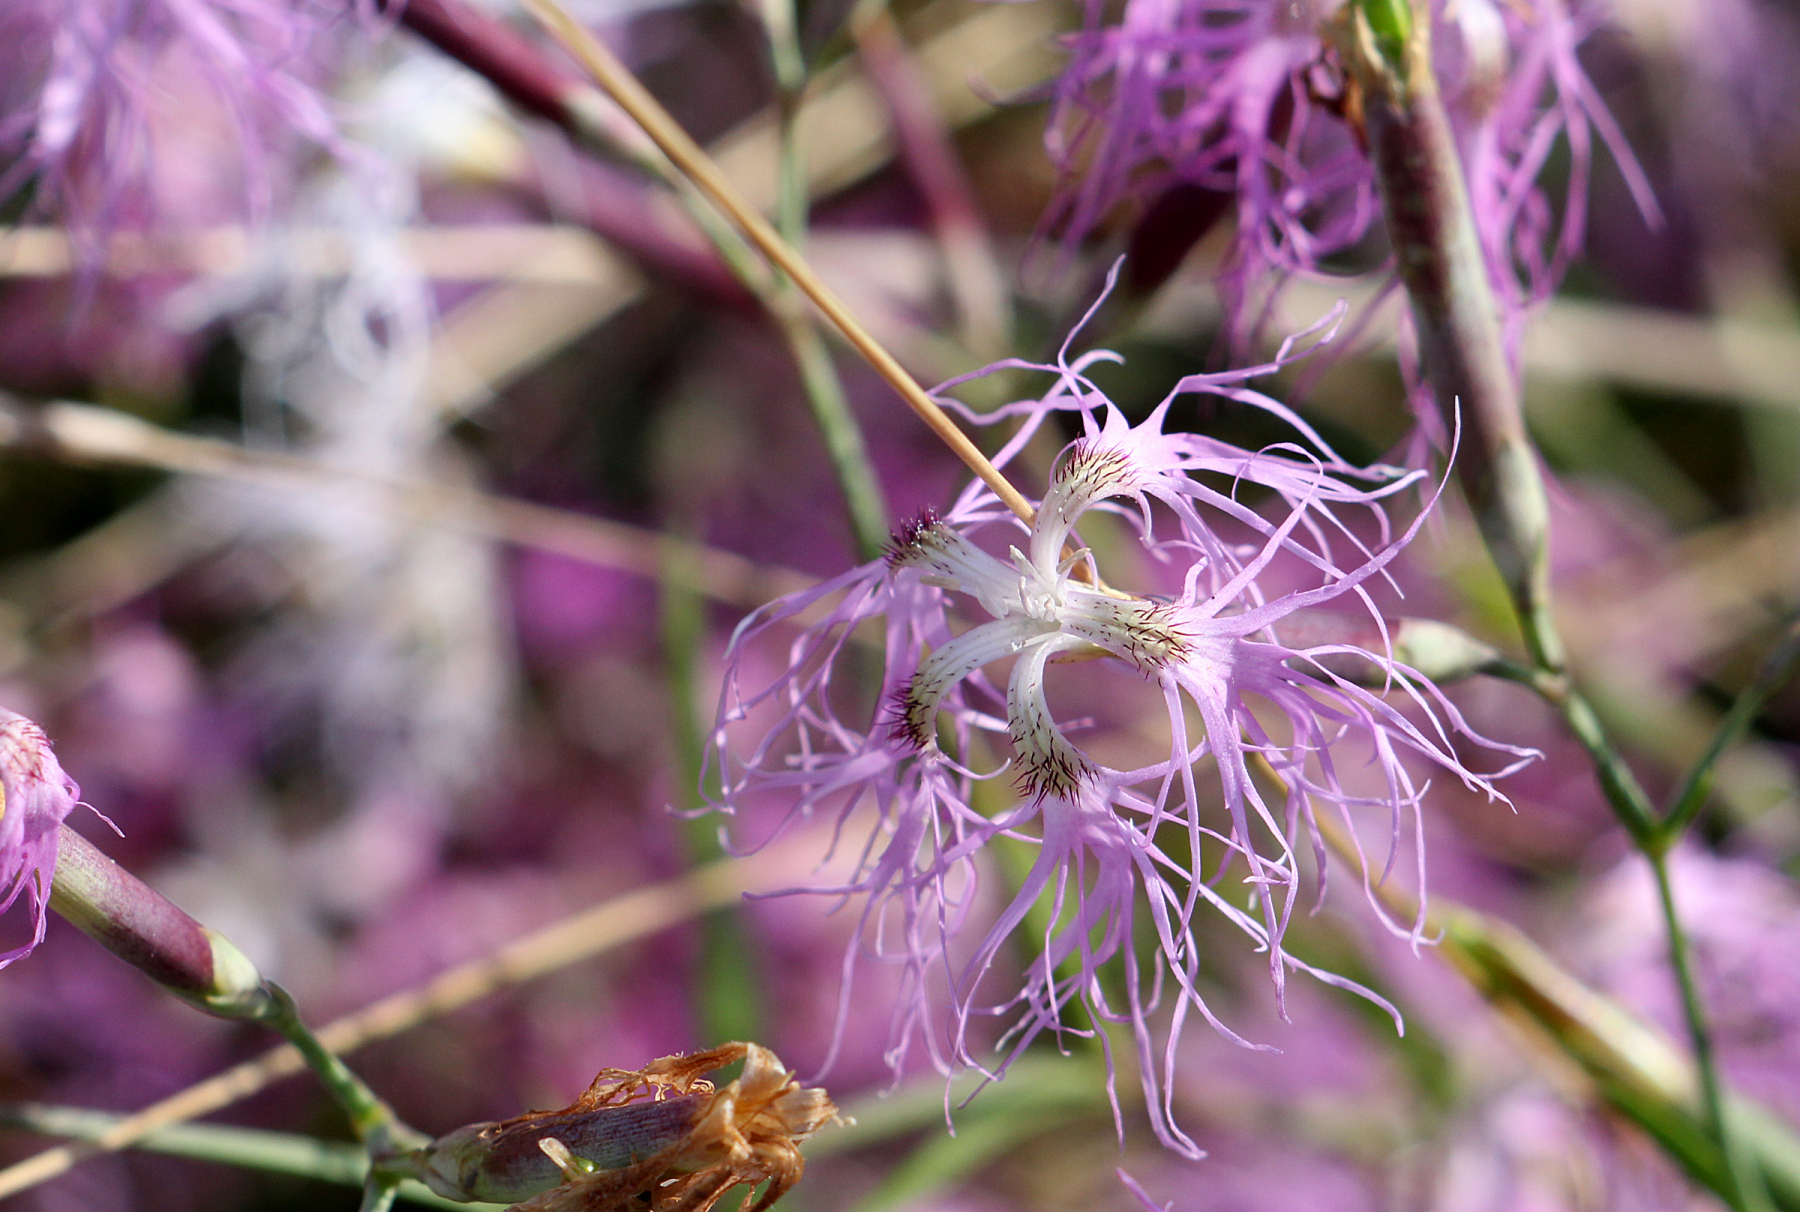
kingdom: Plantae
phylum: Tracheophyta
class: Magnoliopsida
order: Caryophyllales
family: Caryophyllaceae
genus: Dianthus
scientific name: Dianthus superbus
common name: Fringed pink
